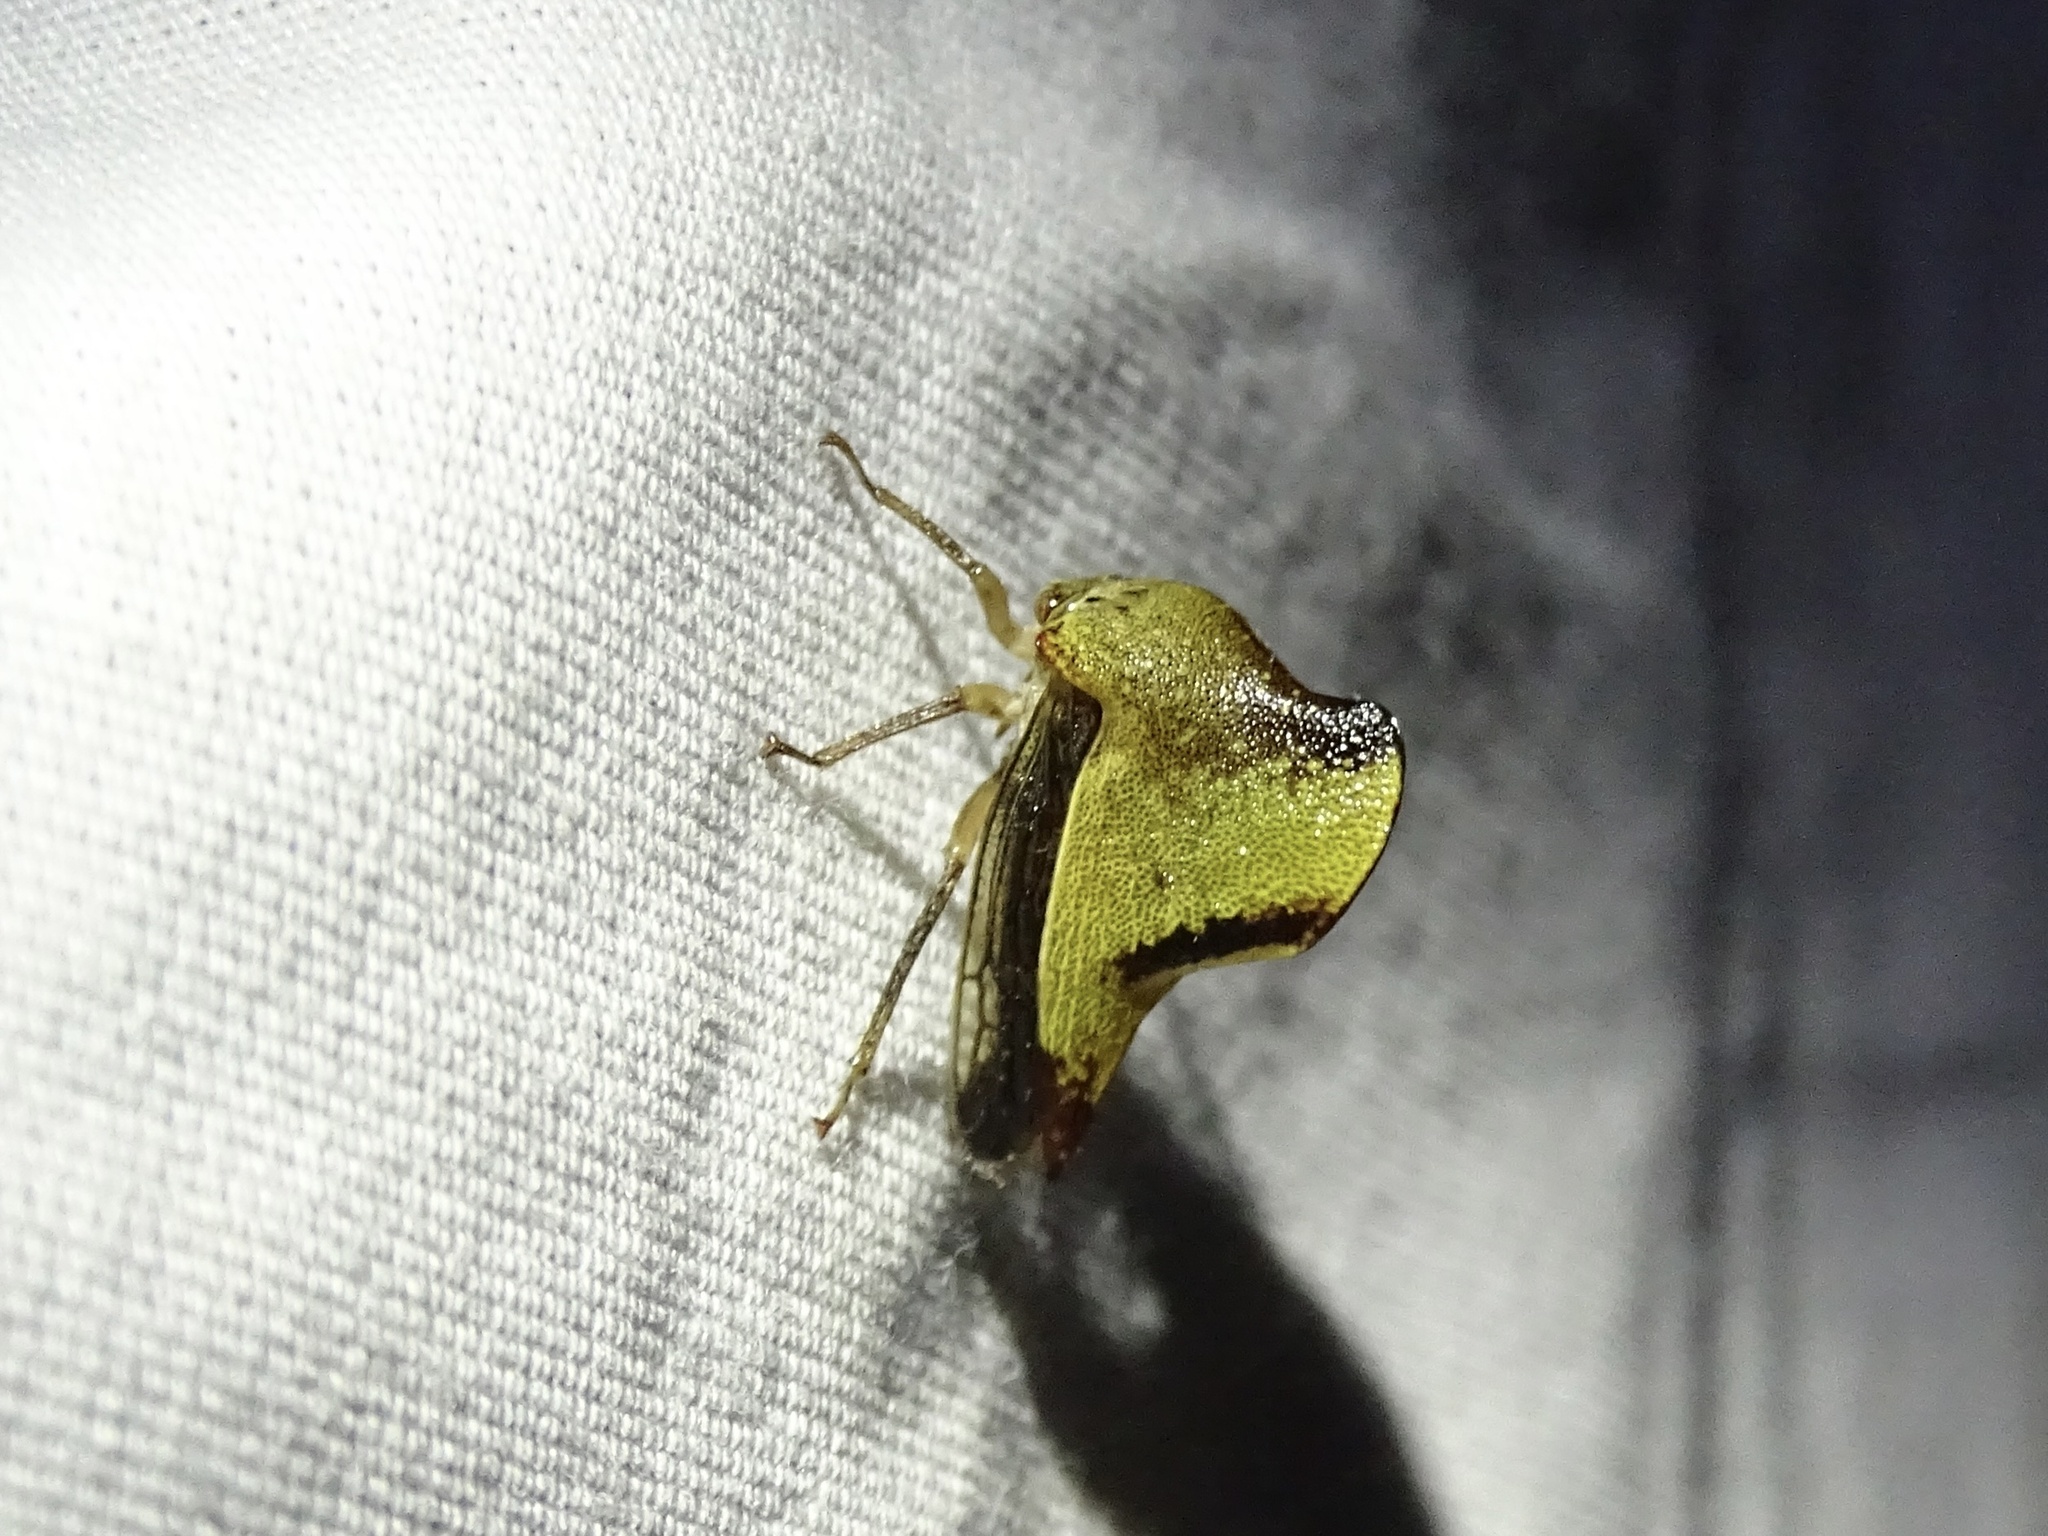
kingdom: Animalia
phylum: Arthropoda
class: Insecta
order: Hemiptera
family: Membracidae
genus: Helonica
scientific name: Helonica excelsa
